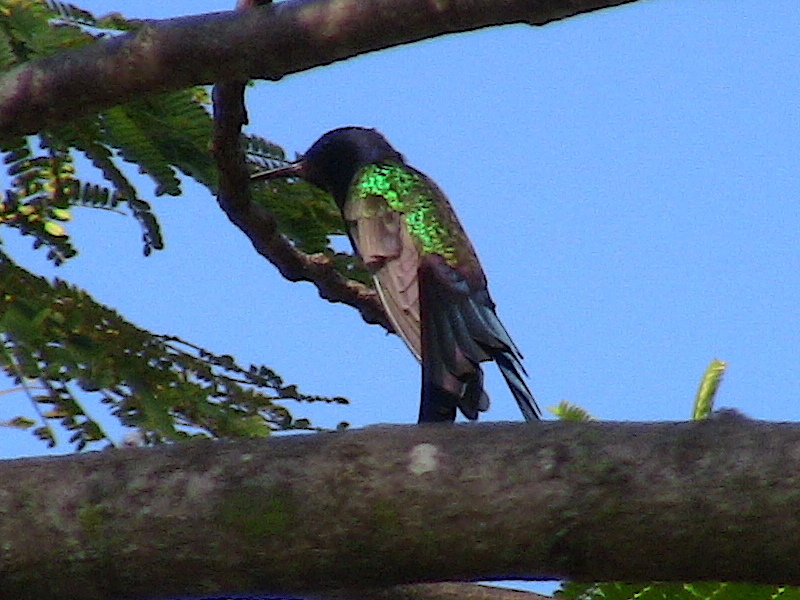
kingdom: Animalia
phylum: Chordata
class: Aves
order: Apodiformes
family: Trochilidae
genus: Eupetomena
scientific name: Eupetomena macroura
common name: Swallow-tailed hummingbird
